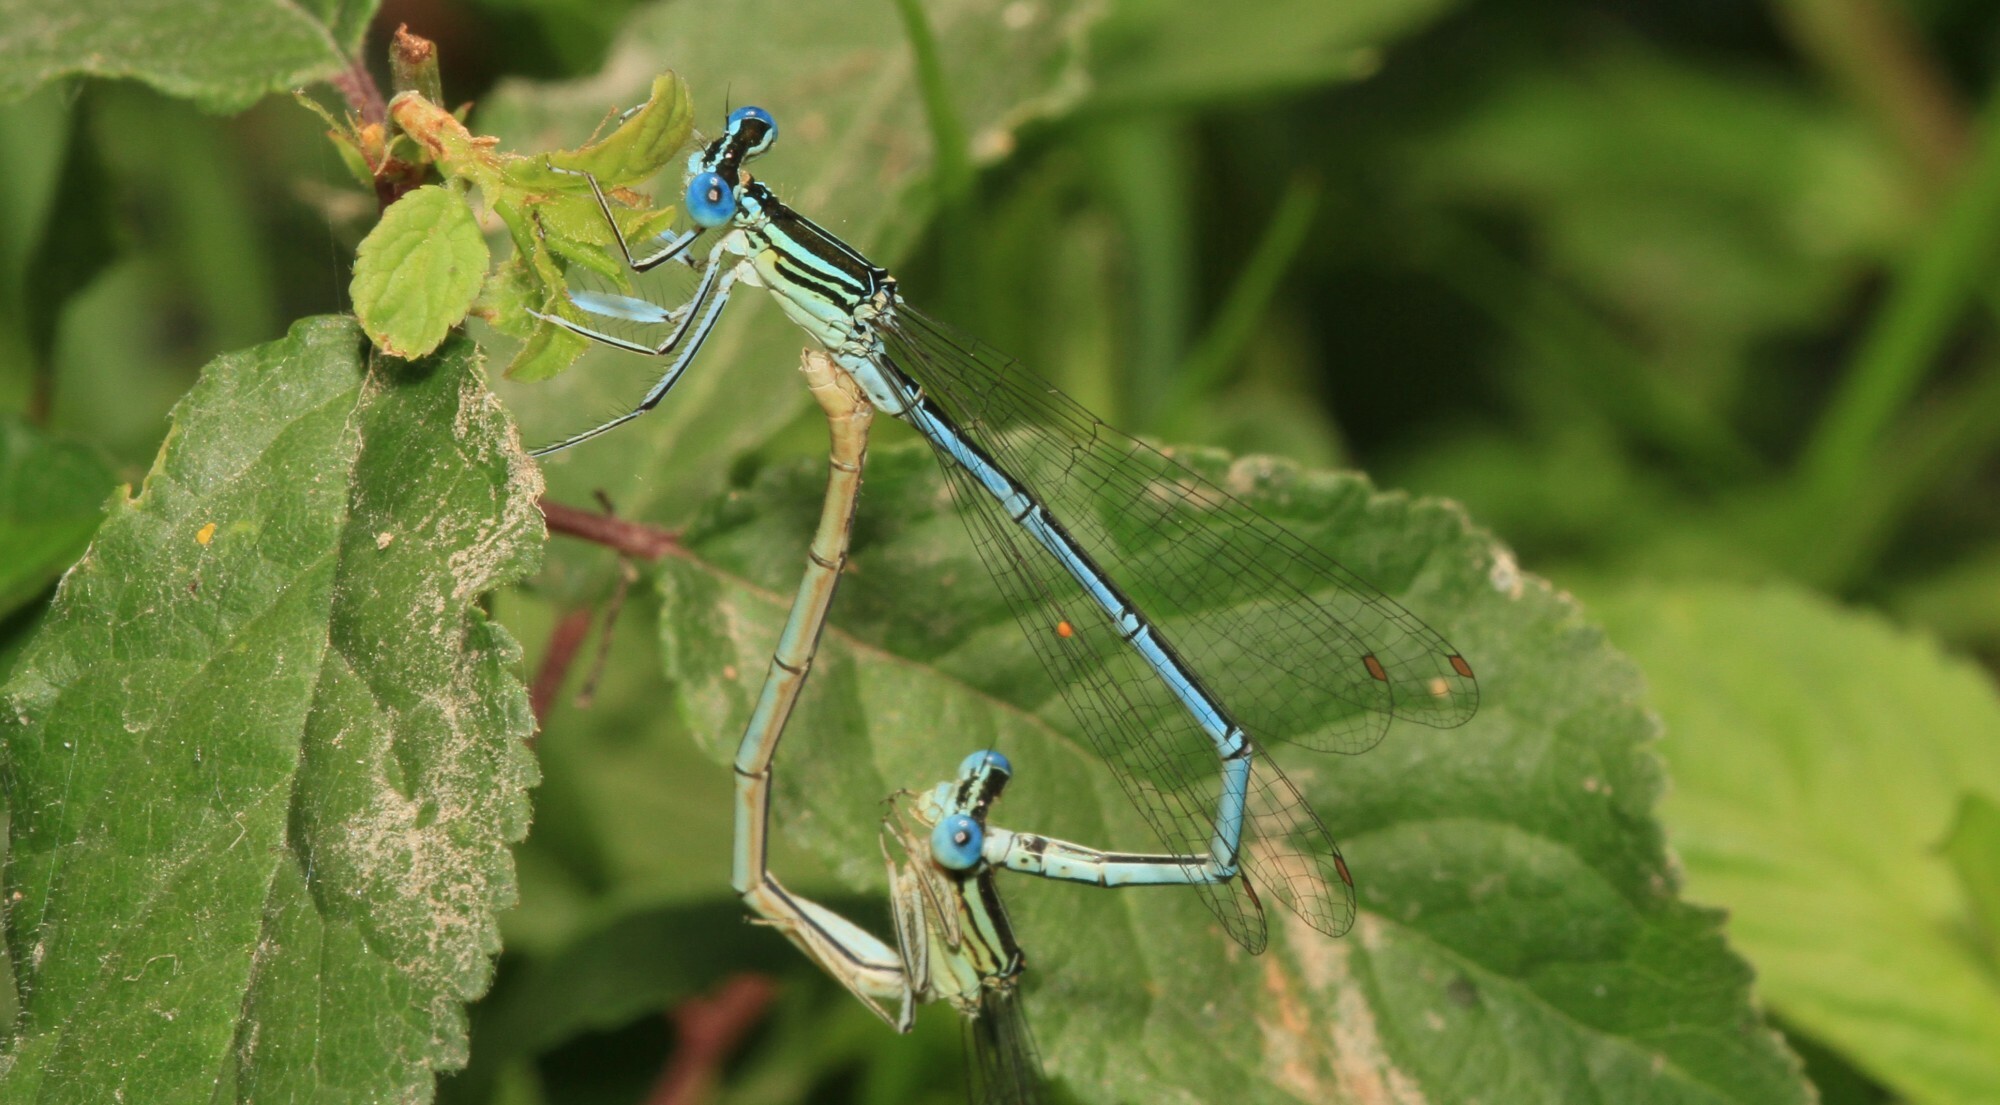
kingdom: Animalia
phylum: Arthropoda
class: Insecta
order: Odonata
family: Platycnemididae
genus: Platycnemis
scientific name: Platycnemis pennipes
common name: White-legged damselfly
